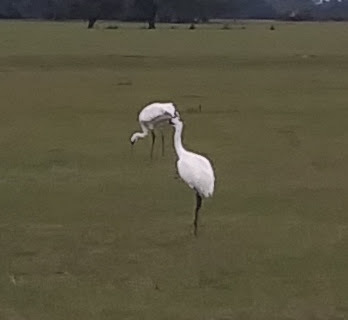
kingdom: Animalia
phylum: Chordata
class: Aves
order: Gruiformes
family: Gruidae
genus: Grus
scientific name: Grus americana
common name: Whooping crane
